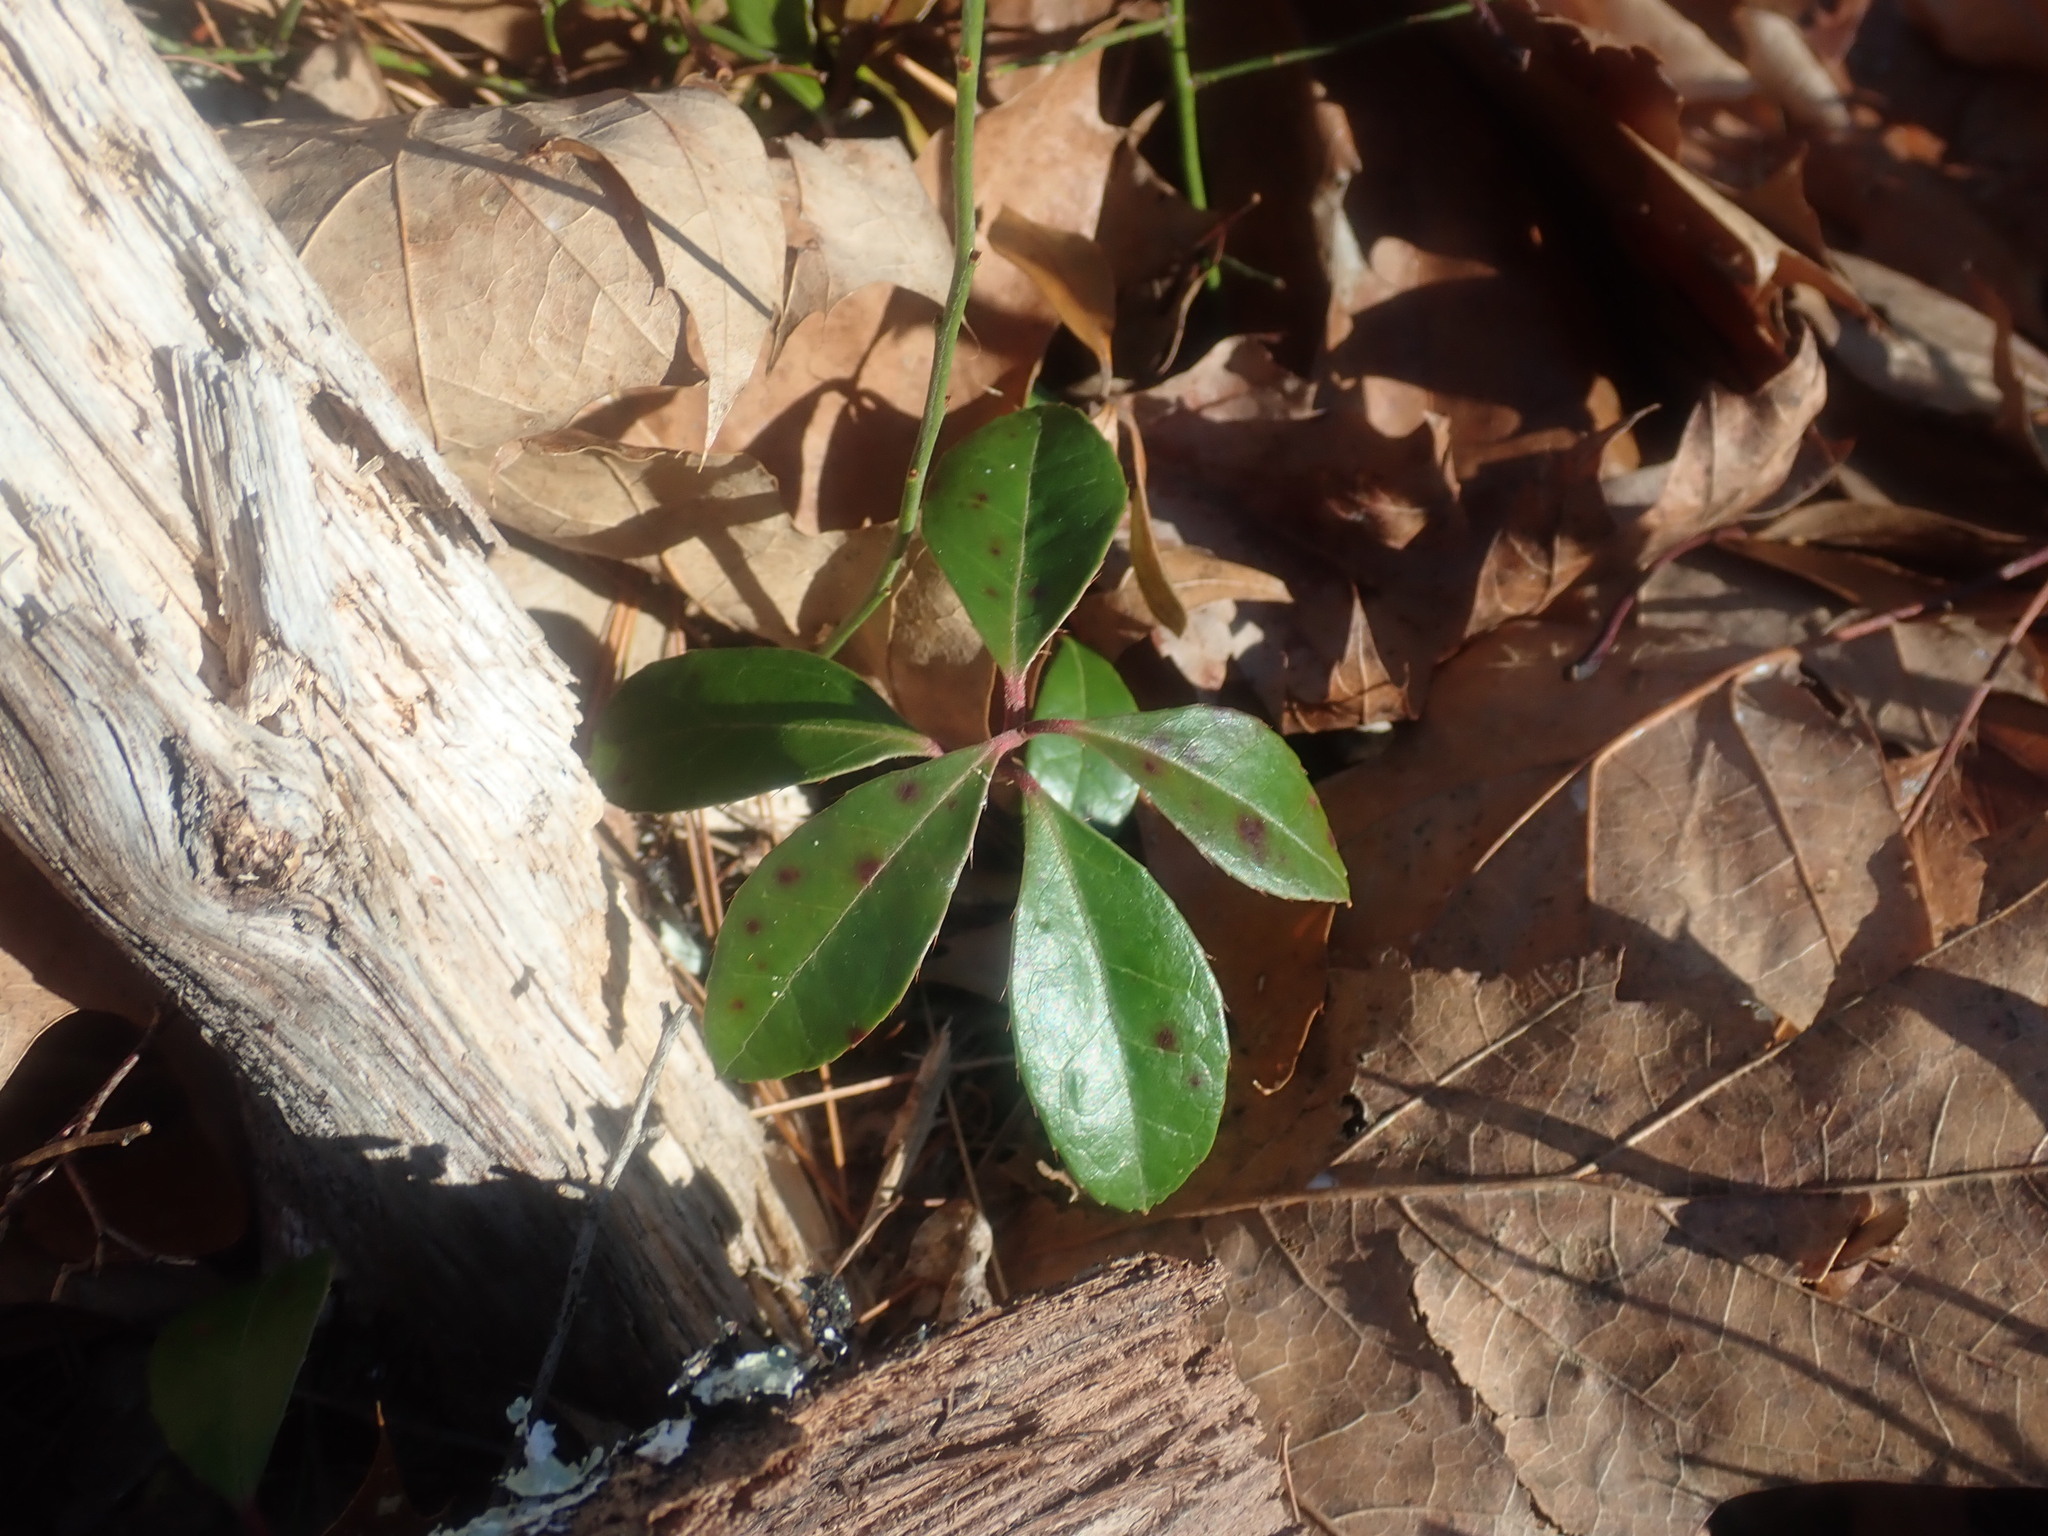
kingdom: Plantae
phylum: Tracheophyta
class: Magnoliopsida
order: Ericales
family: Ericaceae
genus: Gaultheria
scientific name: Gaultheria procumbens
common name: Checkerberry
